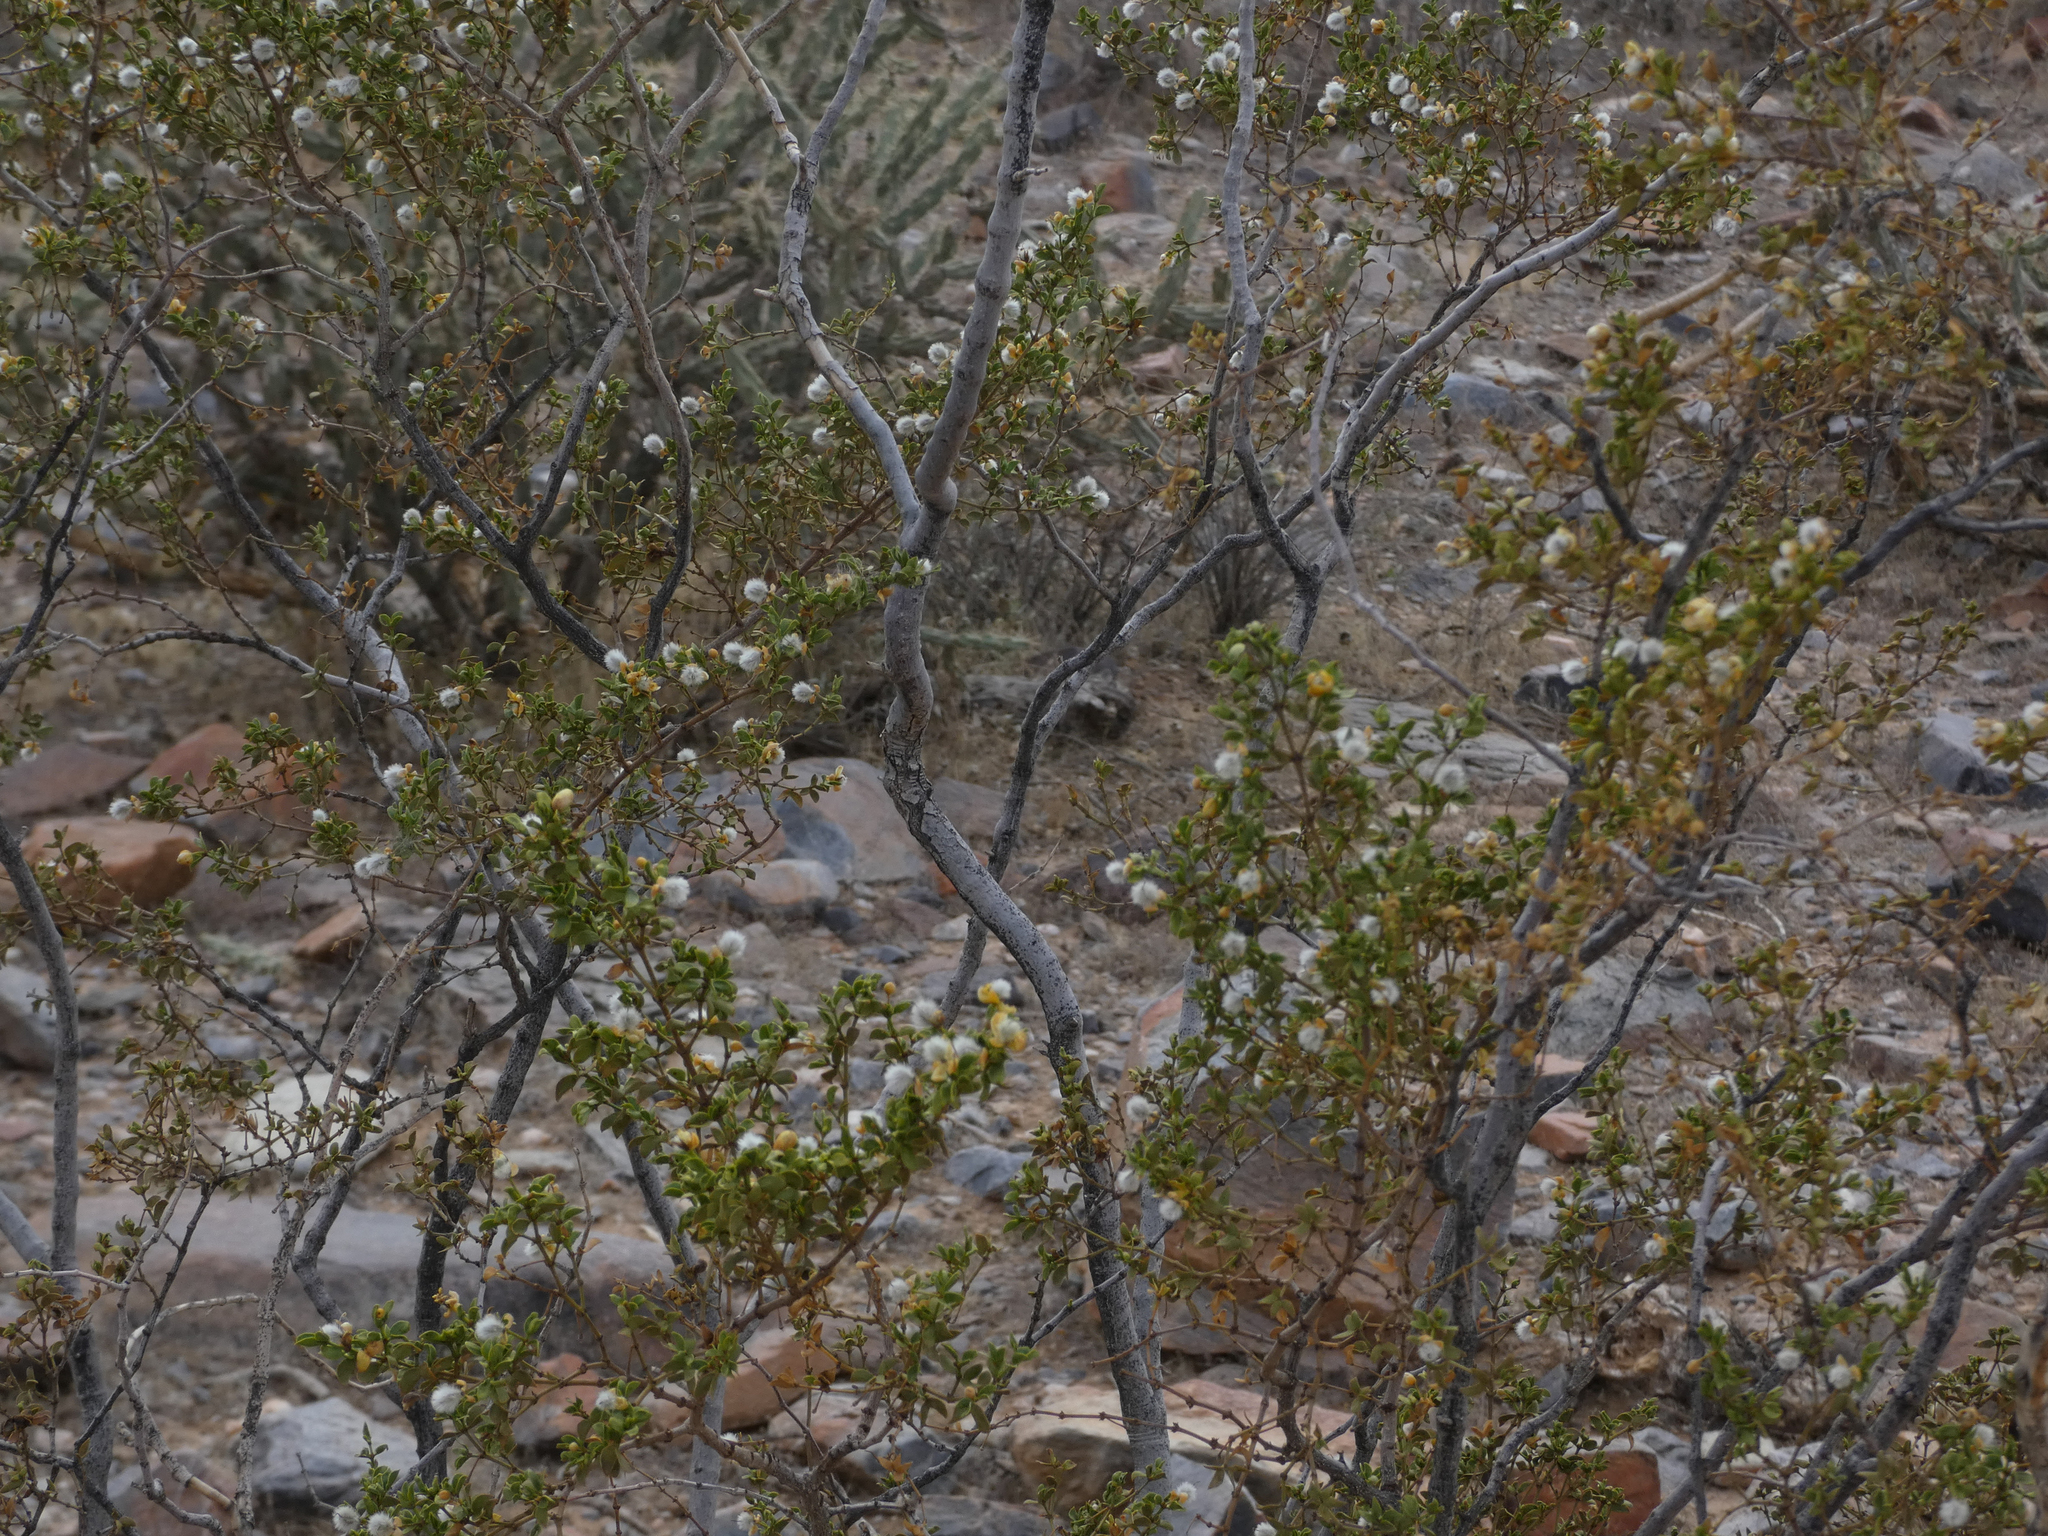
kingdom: Plantae
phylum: Tracheophyta
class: Magnoliopsida
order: Zygophyllales
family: Zygophyllaceae
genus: Larrea
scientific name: Larrea tridentata
